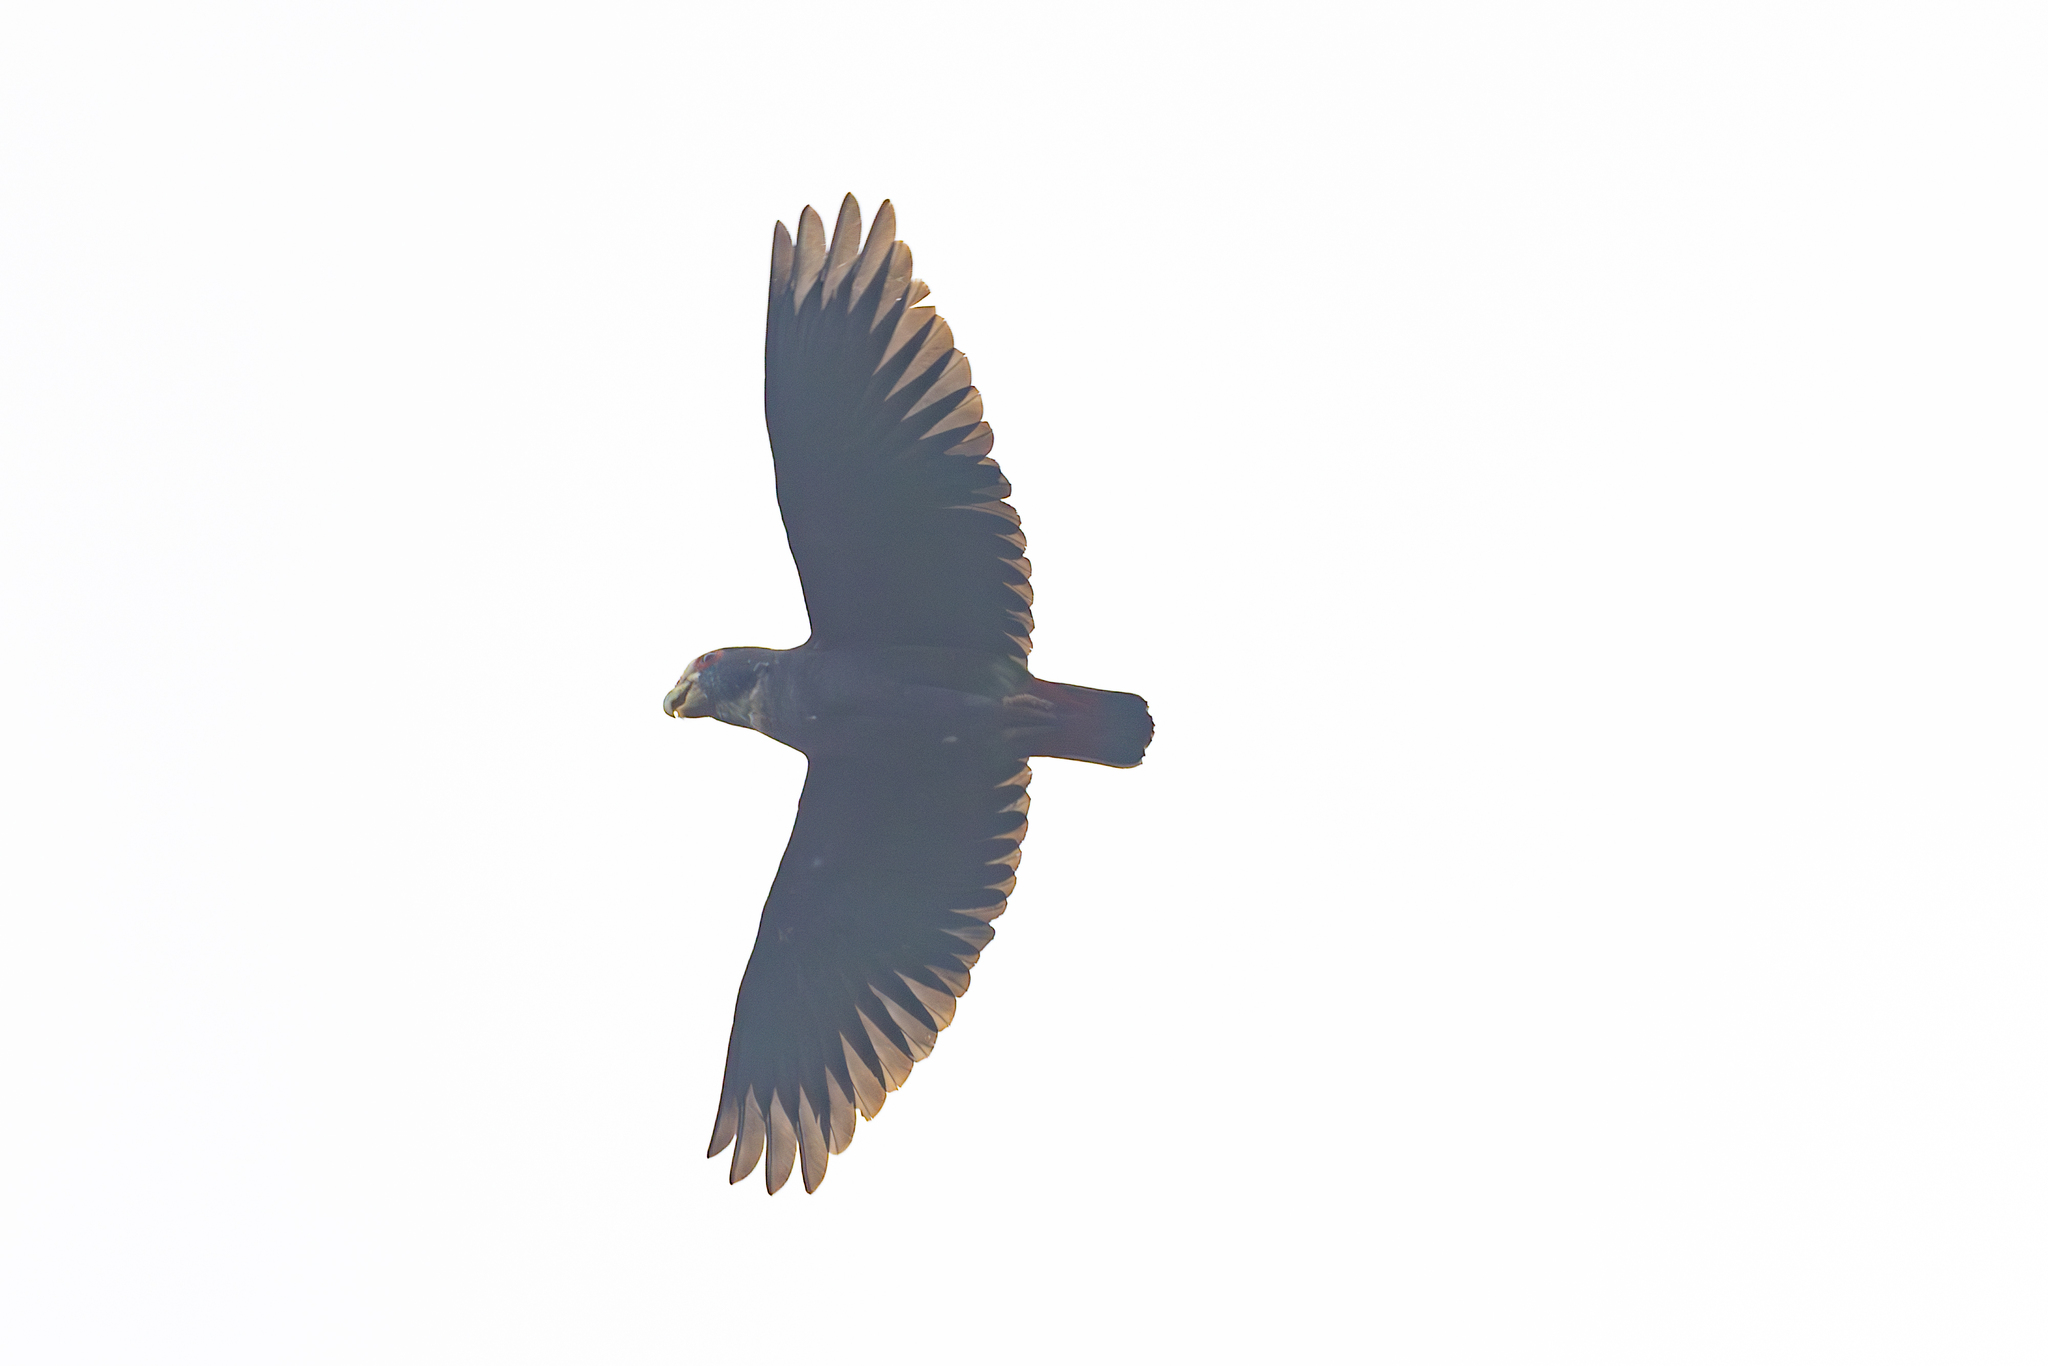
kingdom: Animalia
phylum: Chordata
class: Aves
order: Psittaciformes
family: Psittacidae
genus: Pionus
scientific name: Pionus senilis
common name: White-crowned parrot
